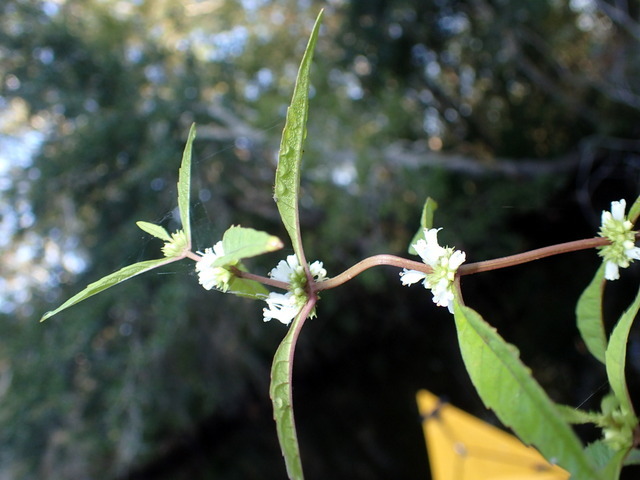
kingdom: Plantae
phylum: Tracheophyta
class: Magnoliopsida
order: Lamiales
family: Lamiaceae
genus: Lycopus
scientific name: Lycopus rubellus
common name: Stalked bugleweed
